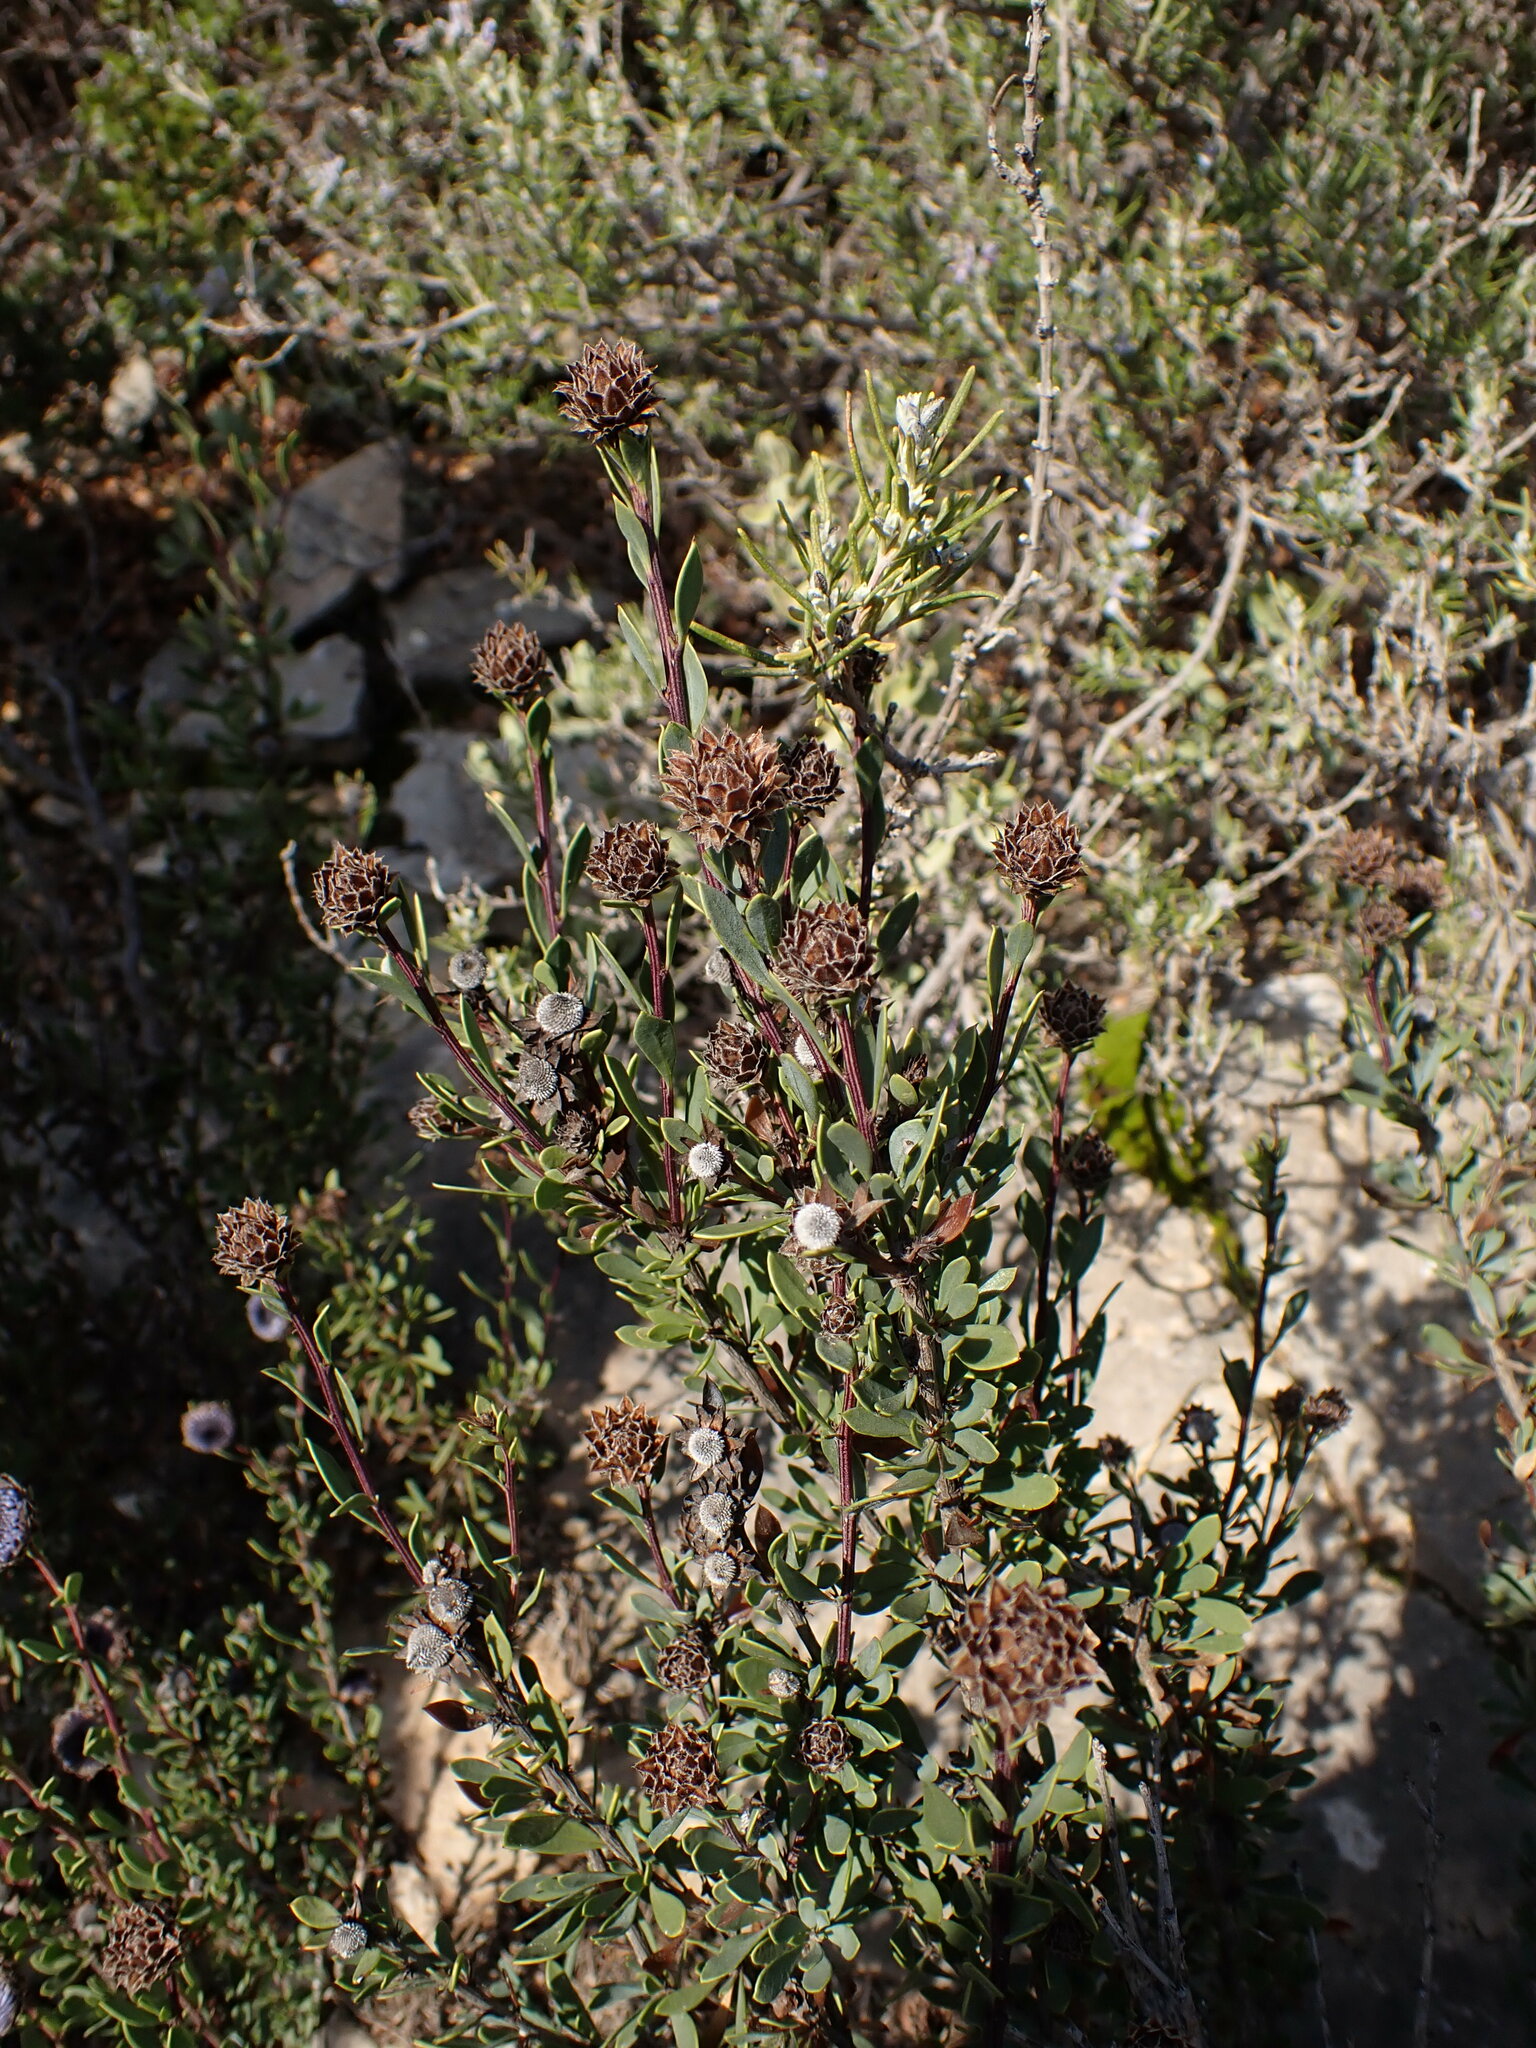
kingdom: Plantae
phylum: Tracheophyta
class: Magnoliopsida
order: Lamiales
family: Plantaginaceae
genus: Globularia
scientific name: Globularia alypum
